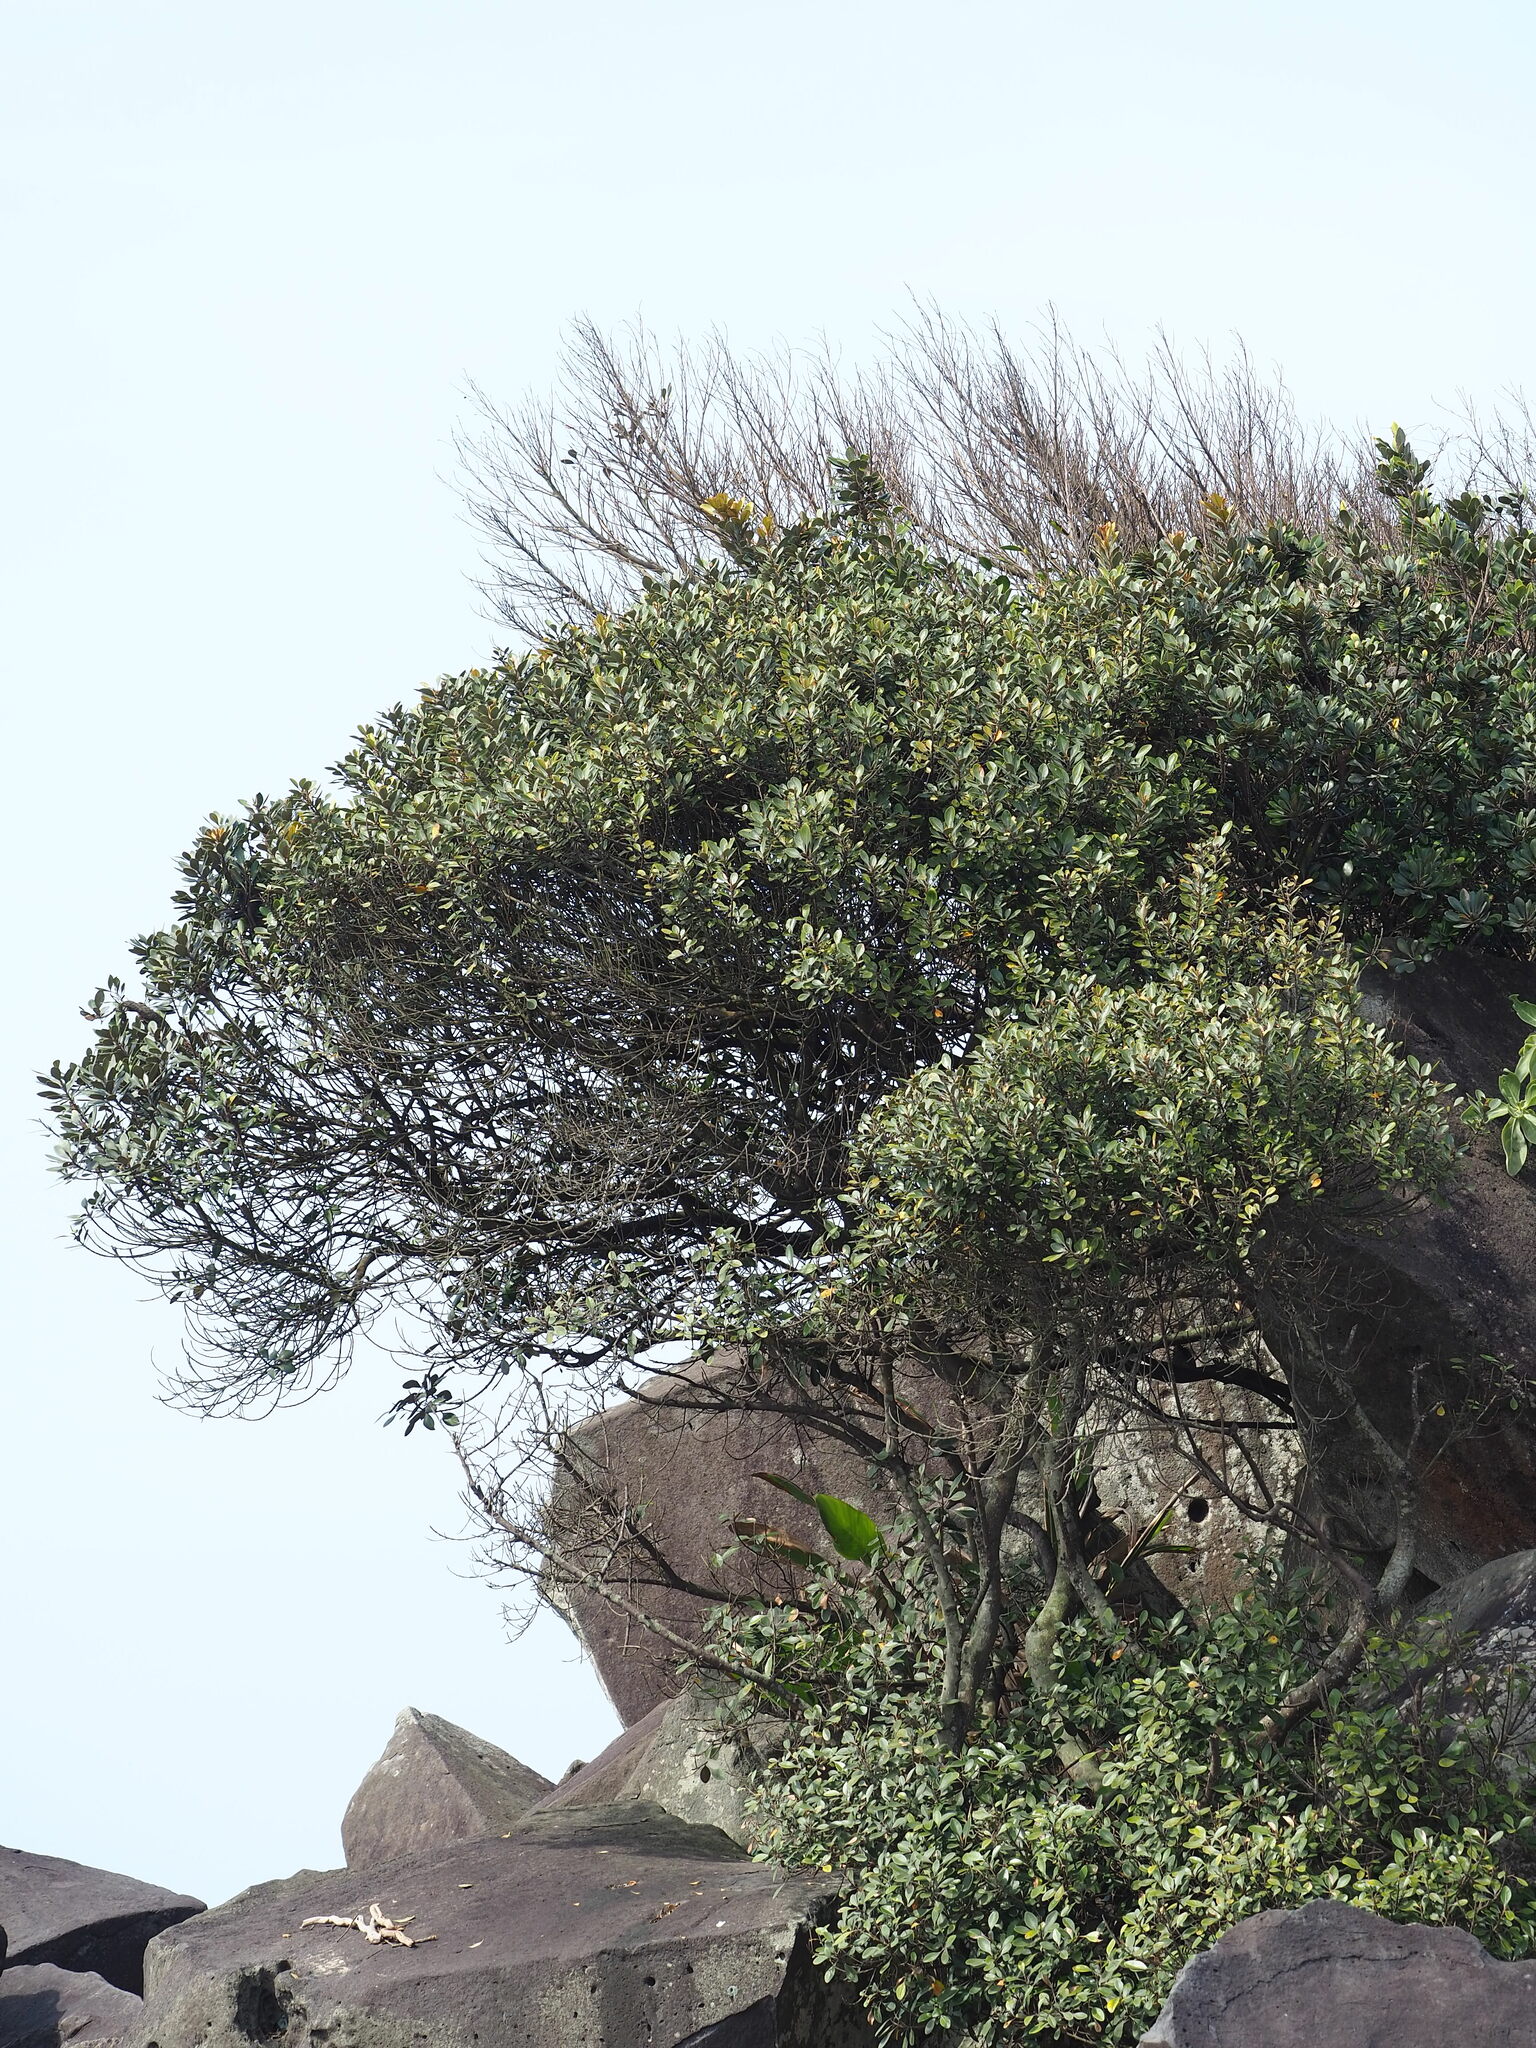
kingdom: Plantae
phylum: Tracheophyta
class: Magnoliopsida
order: Ericales
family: Sapotaceae
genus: Planchonella
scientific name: Planchonella obovata
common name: Black-ash
